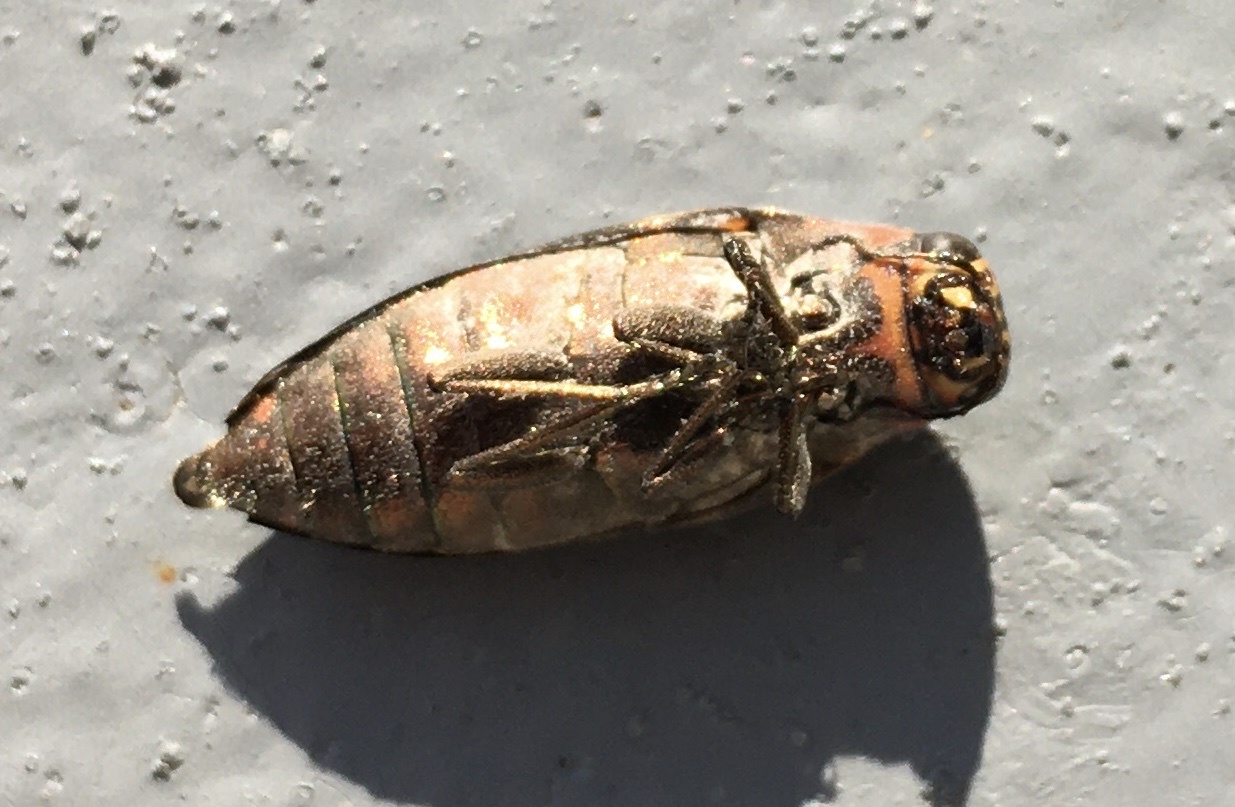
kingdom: Animalia
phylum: Arthropoda
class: Insecta
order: Coleoptera
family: Buprestidae
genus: Buprestis
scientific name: Buprestis lineata
